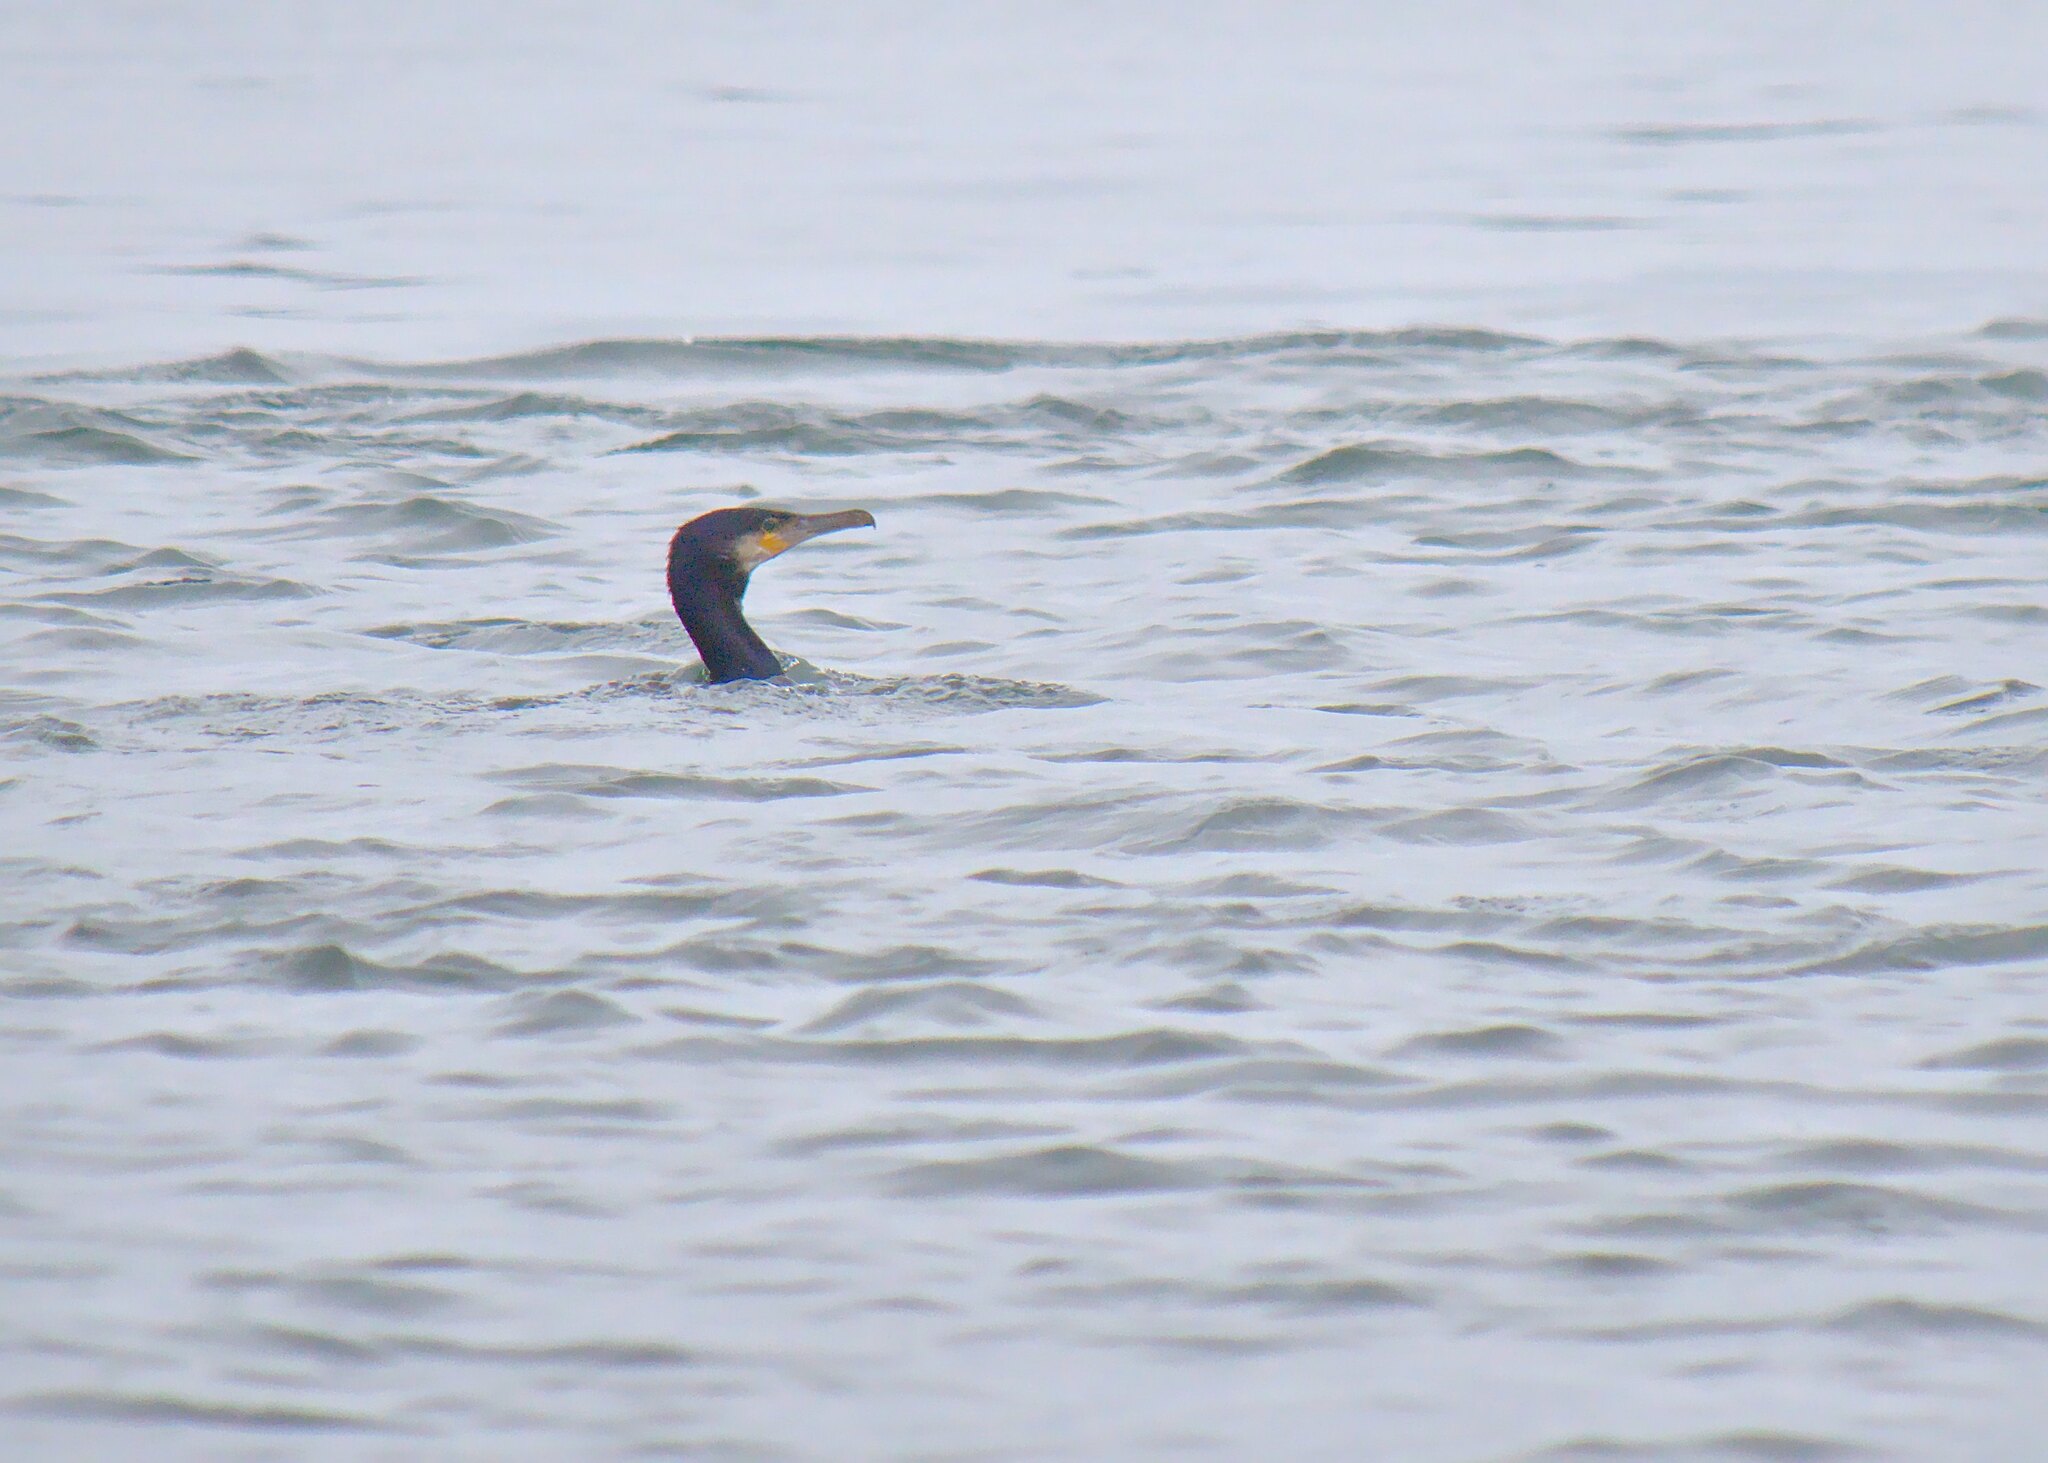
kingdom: Animalia
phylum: Chordata
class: Aves
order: Suliformes
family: Phalacrocoracidae
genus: Phalacrocorax
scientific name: Phalacrocorax carbo
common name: Great cormorant
